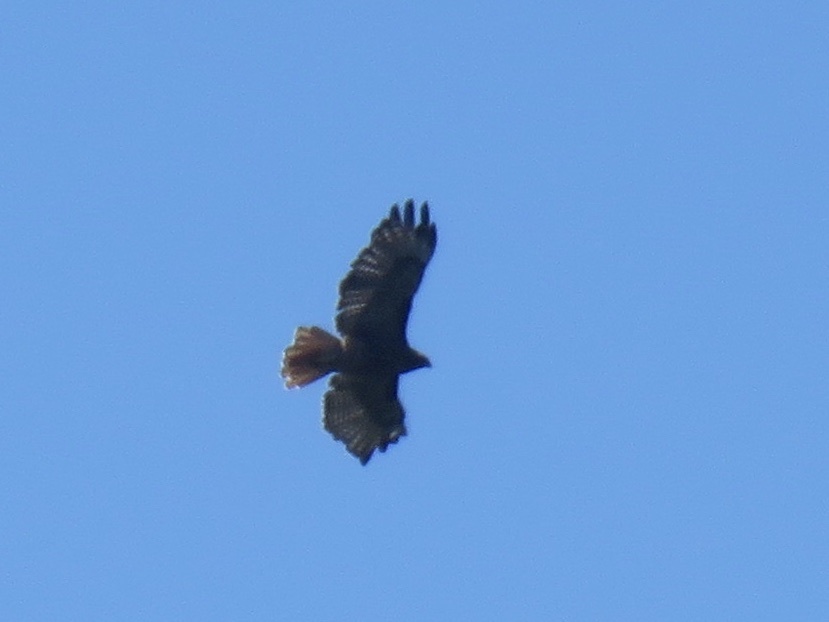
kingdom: Animalia
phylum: Chordata
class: Aves
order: Accipitriformes
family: Accipitridae
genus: Buteo
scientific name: Buteo jamaicensis
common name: Red-tailed hawk
